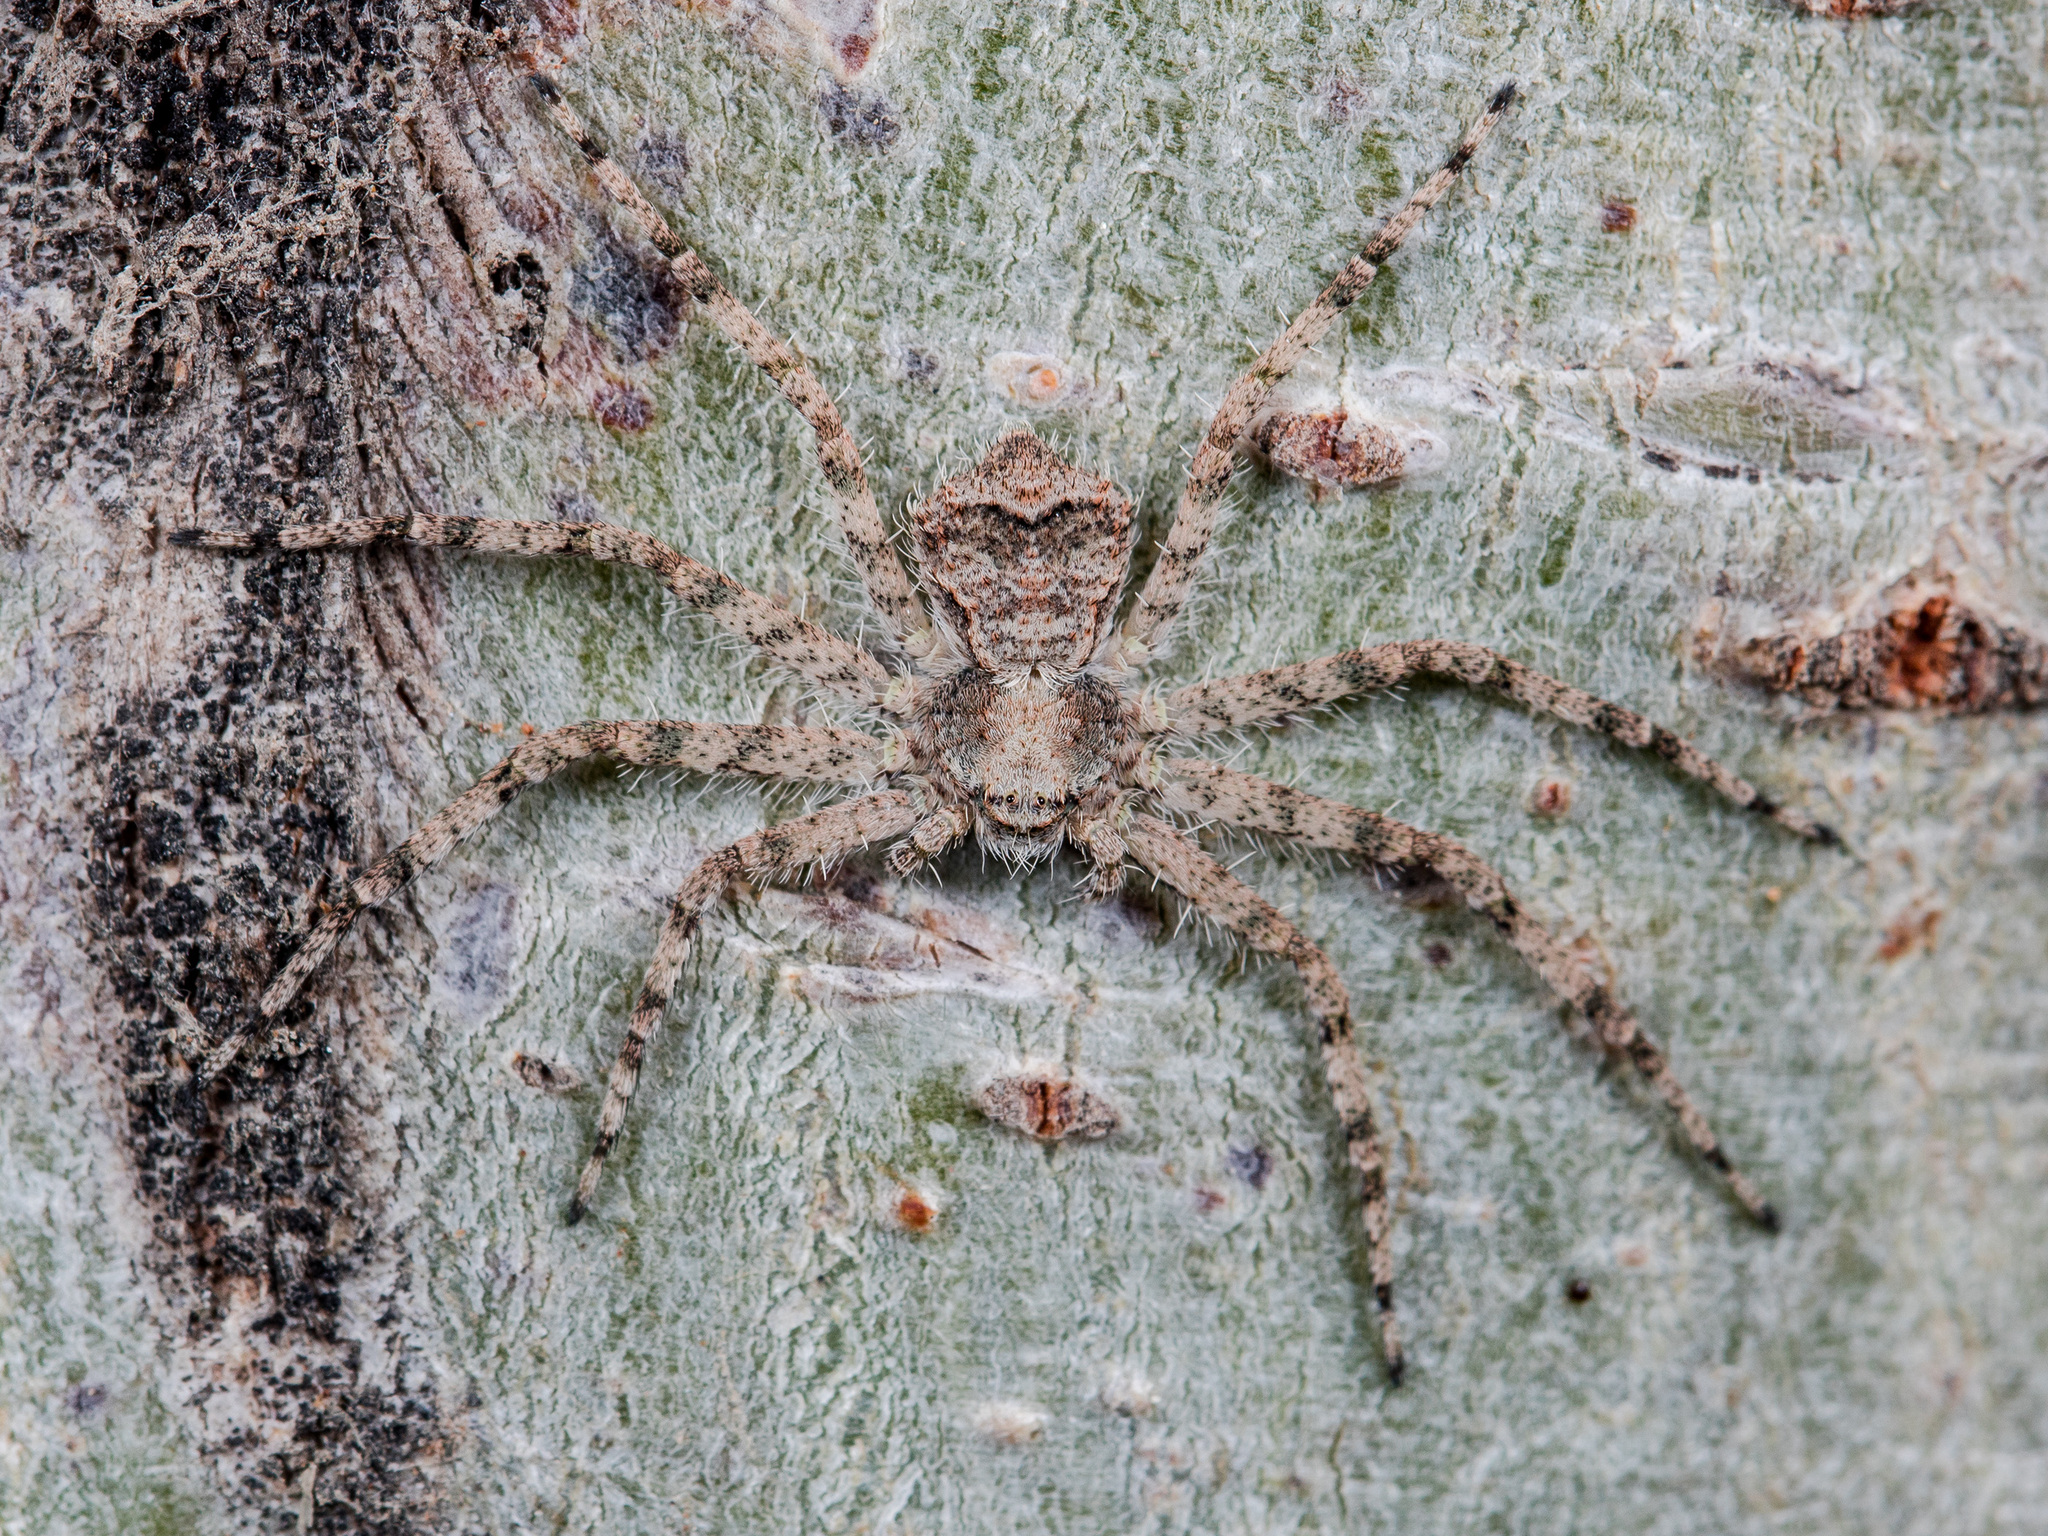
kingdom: Animalia
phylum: Arthropoda
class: Arachnida
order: Araneae
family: Philodromidae
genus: Philodromus
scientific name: Philodromus poecilus
